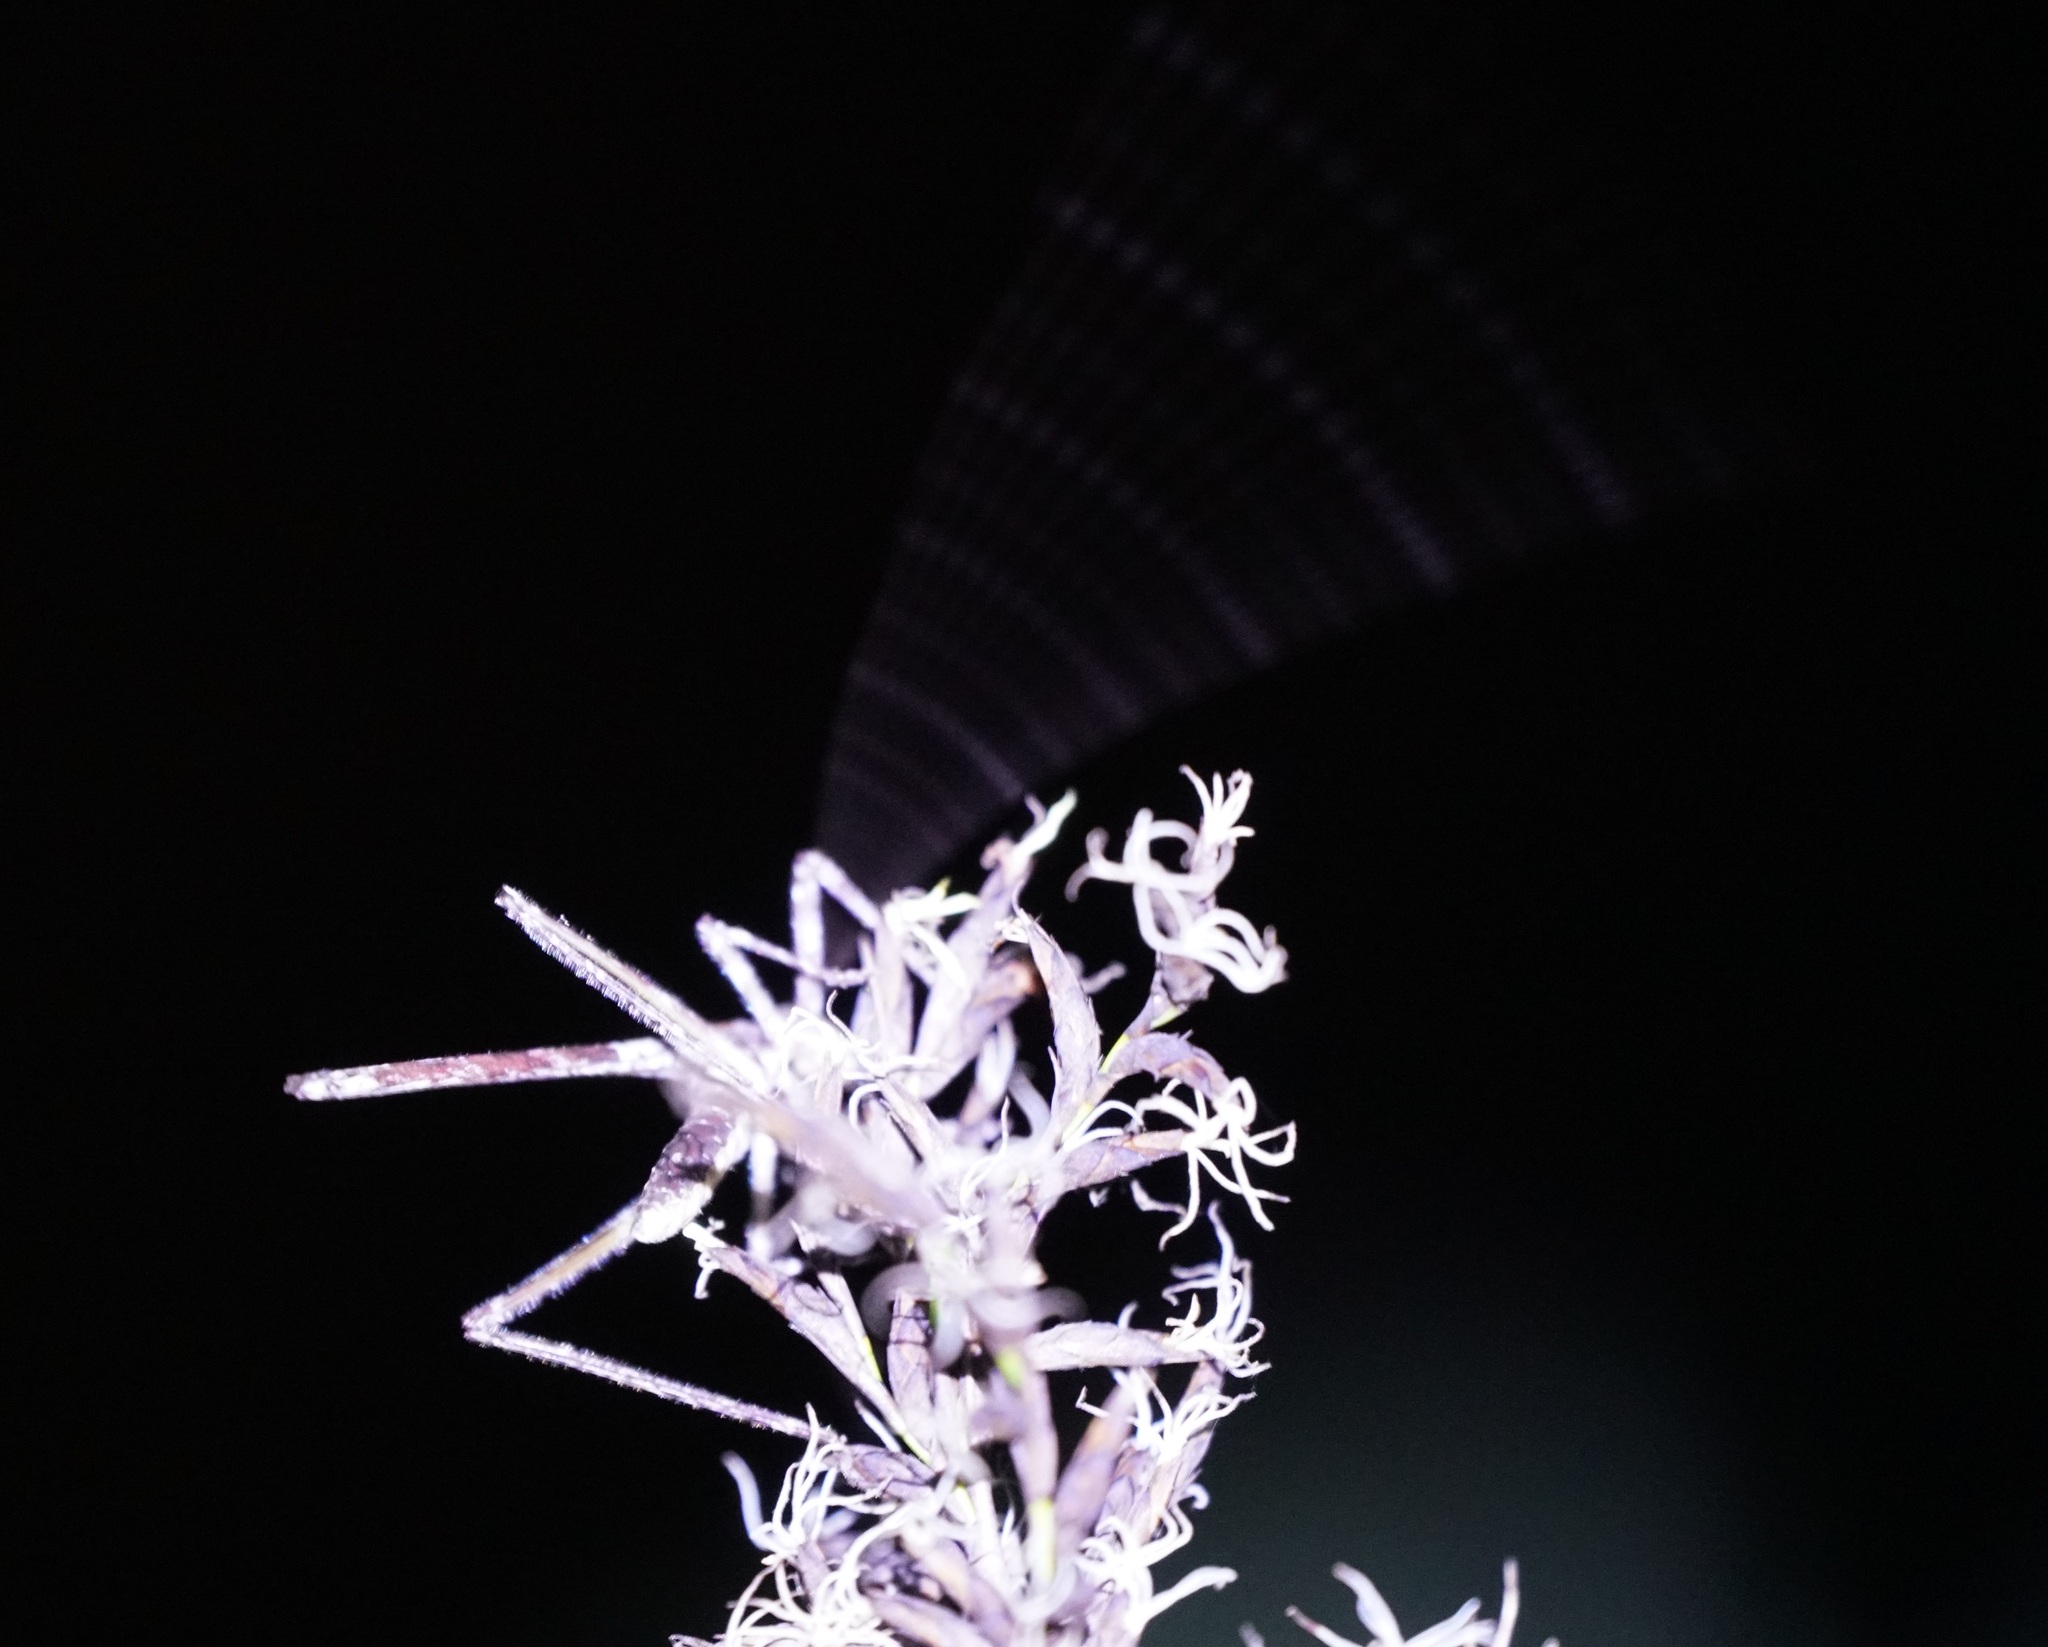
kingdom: Animalia
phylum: Arthropoda
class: Insecta
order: Orthoptera
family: Tettigoniidae
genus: Zaprochilus
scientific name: Zaprochilus australis
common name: Australian twig-mimicking katydid
